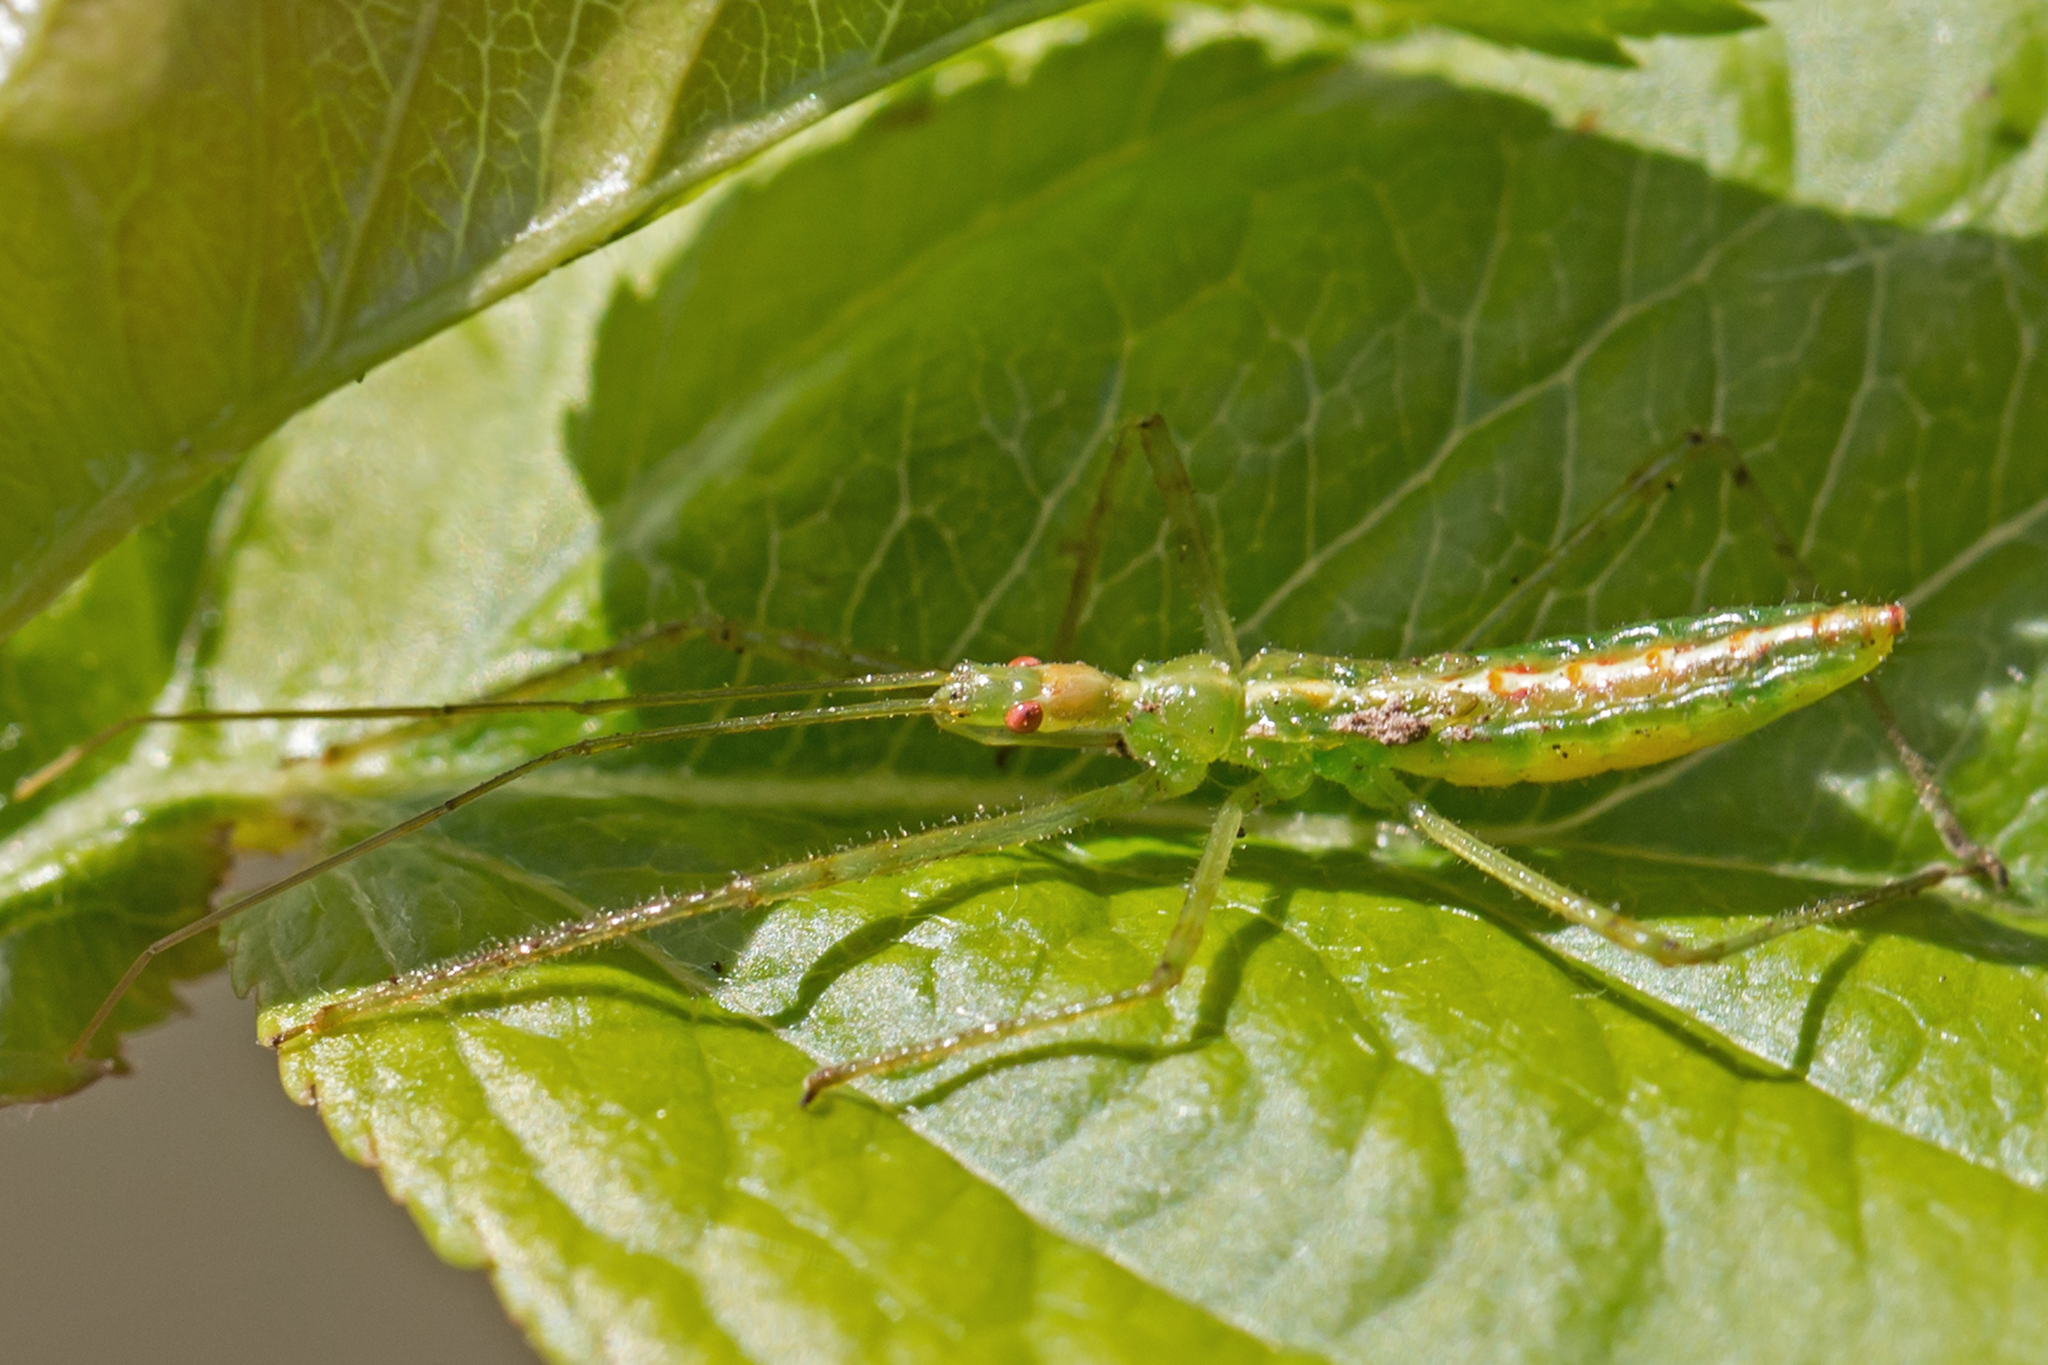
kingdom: Animalia
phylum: Arthropoda
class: Insecta
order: Hemiptera
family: Reduviidae
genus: Zelus
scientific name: Zelus luridus
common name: Pale green assassin bug
